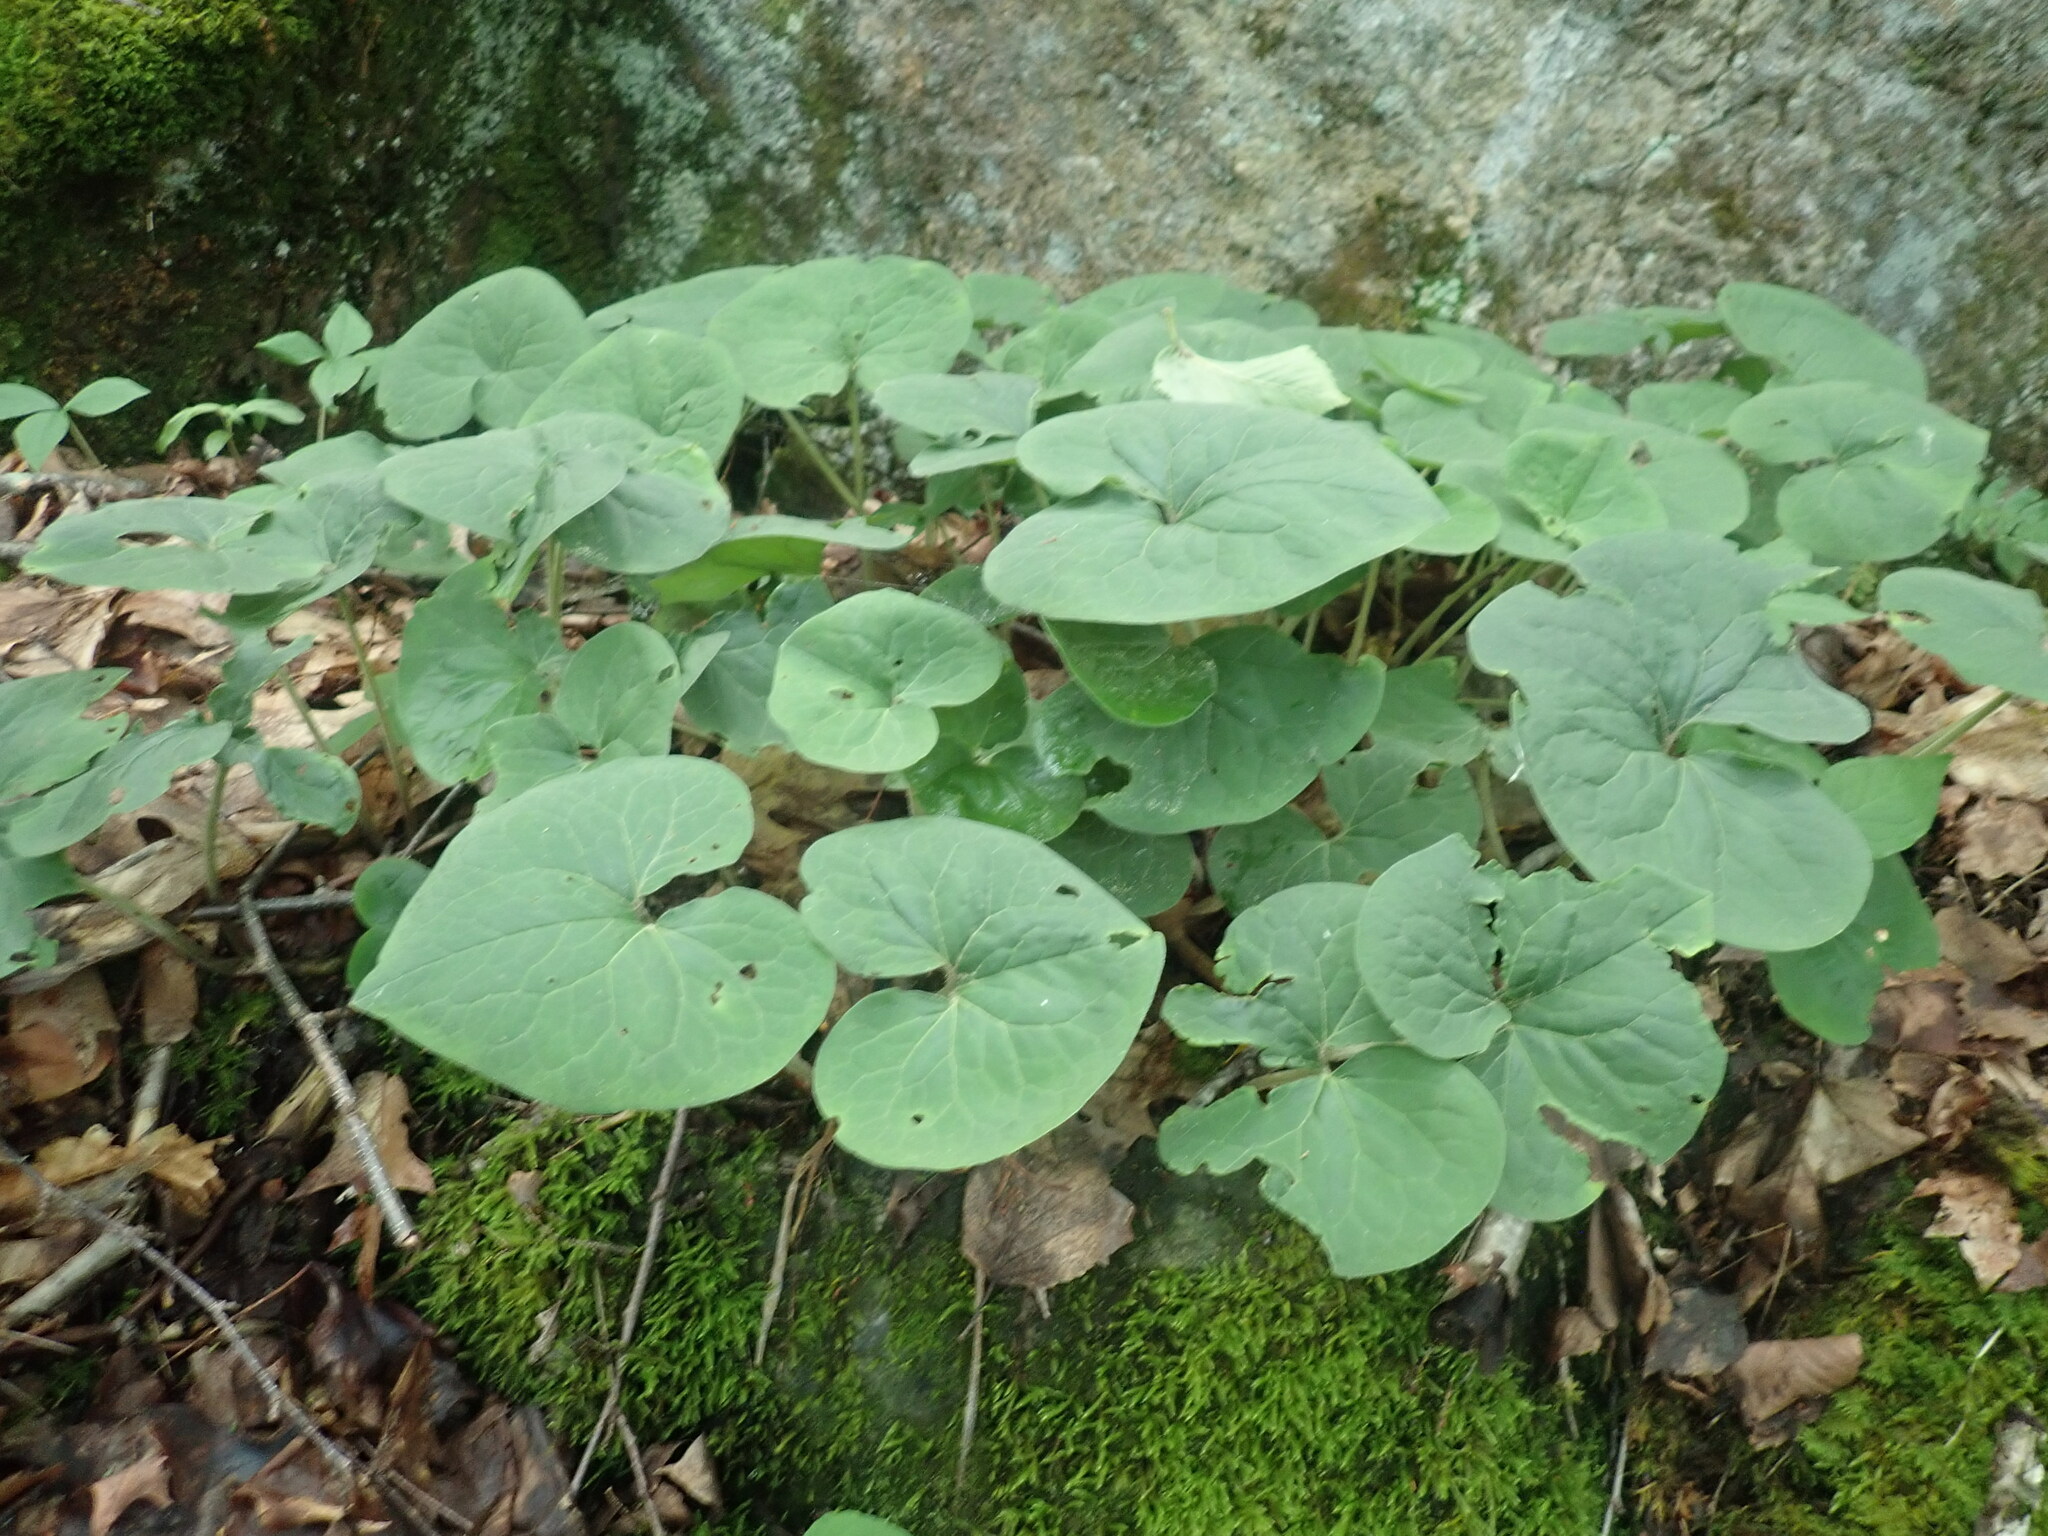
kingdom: Plantae
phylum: Tracheophyta
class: Magnoliopsida
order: Piperales
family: Aristolochiaceae
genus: Asarum
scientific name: Asarum canadense
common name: Wild ginger
